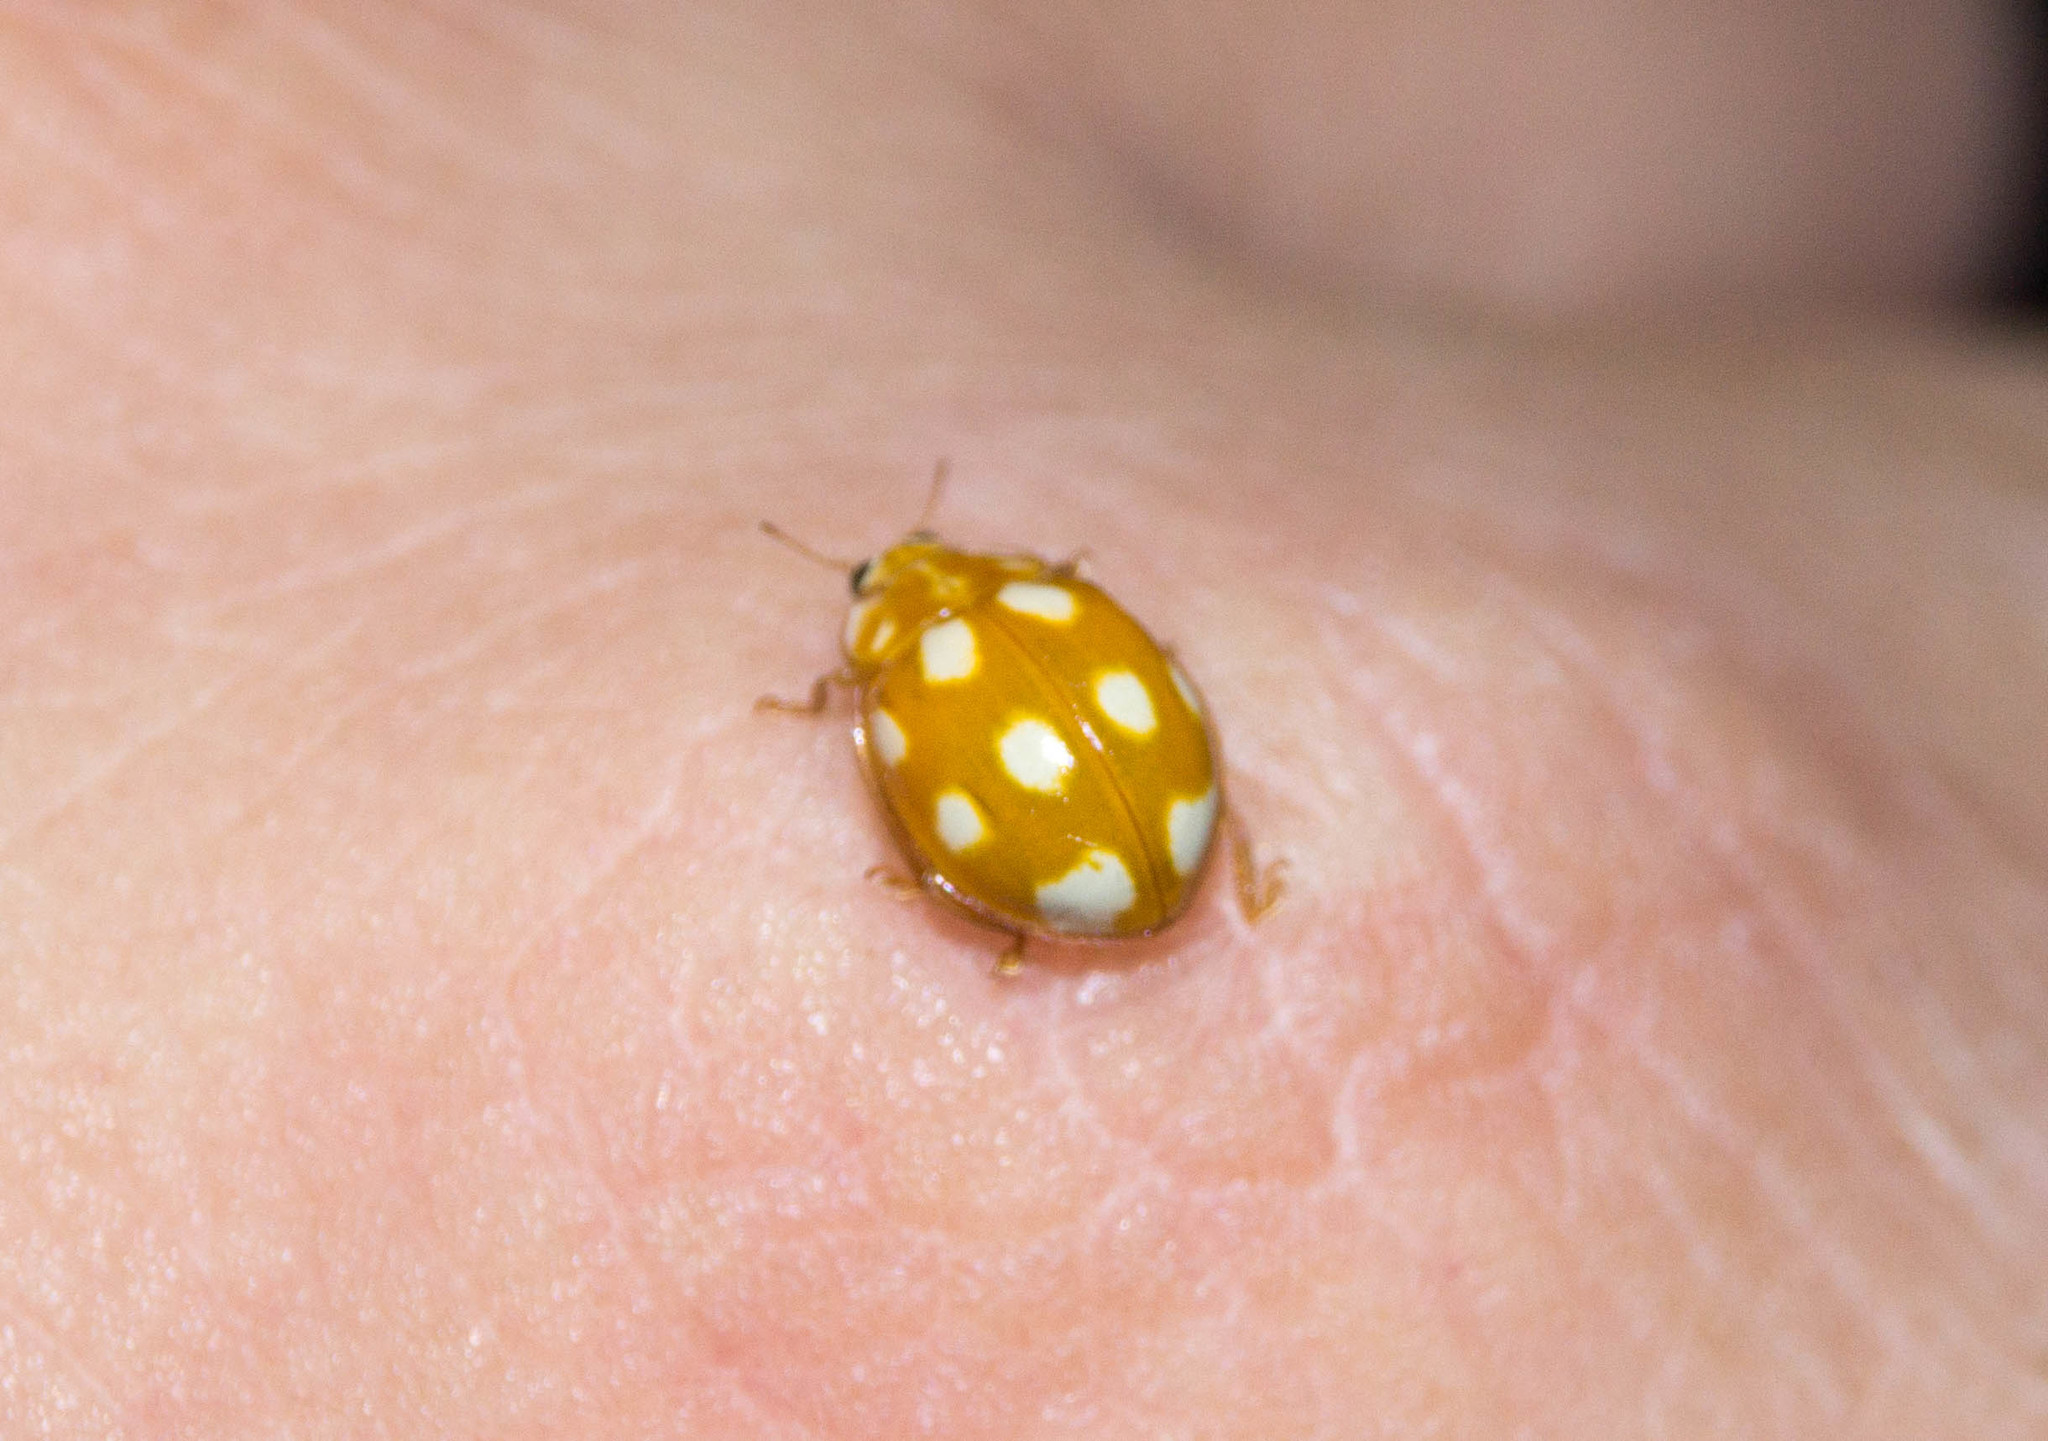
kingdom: Animalia
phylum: Arthropoda
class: Insecta
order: Coleoptera
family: Coccinellidae
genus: Calvia
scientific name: Calvia decemguttata
